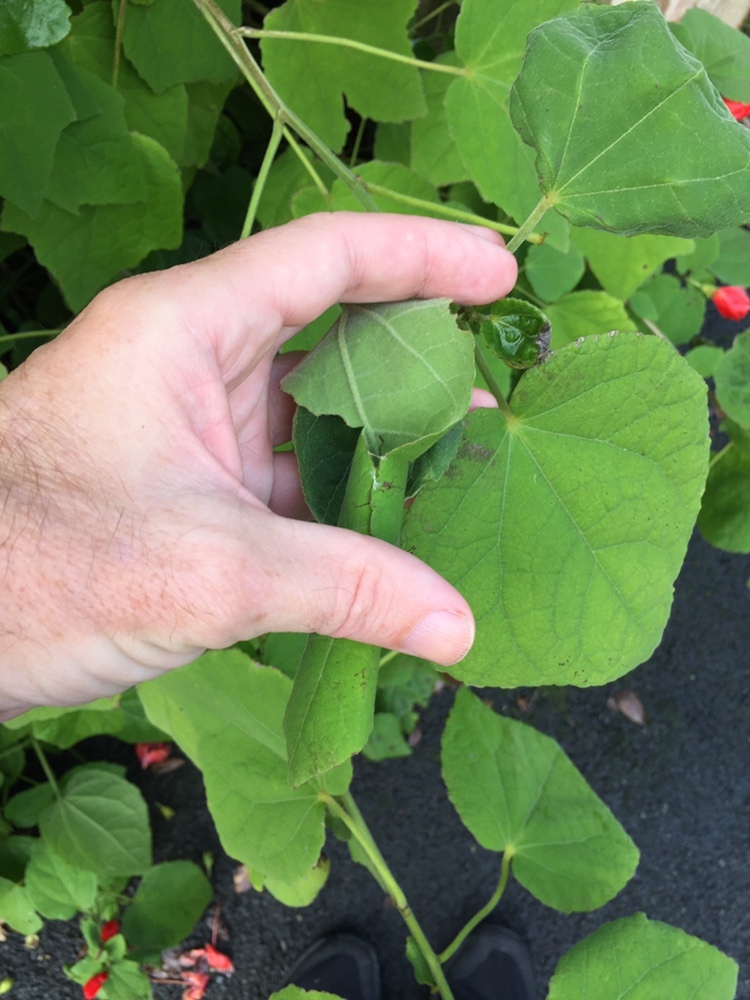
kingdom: Animalia
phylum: Arthropoda
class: Insecta
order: Lepidoptera
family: Crambidae
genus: Haritalodes
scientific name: Haritalodes derogata
